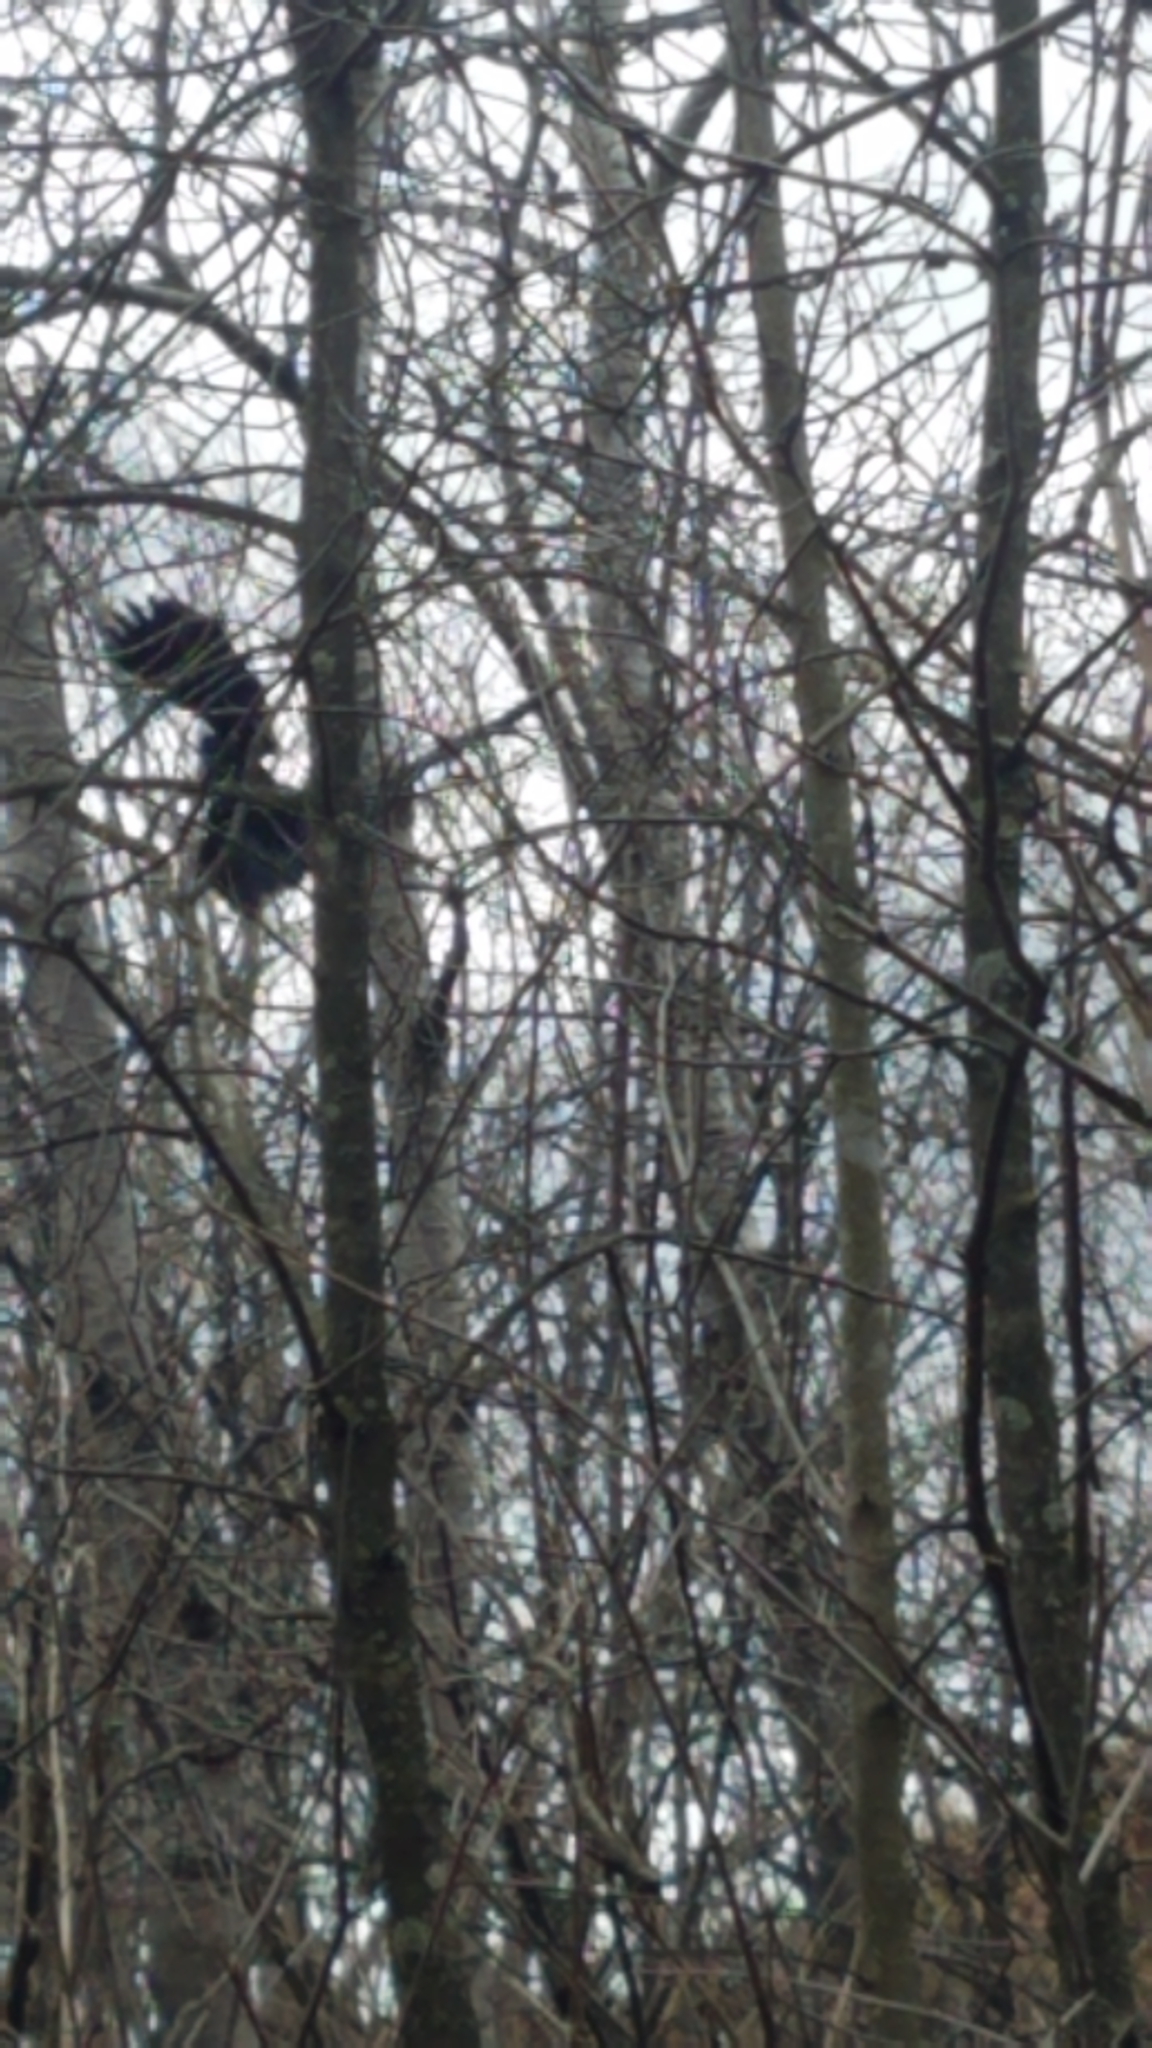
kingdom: Animalia
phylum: Chordata
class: Aves
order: Passeriformes
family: Icteridae
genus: Agelaius
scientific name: Agelaius phoeniceus
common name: Red-winged blackbird
